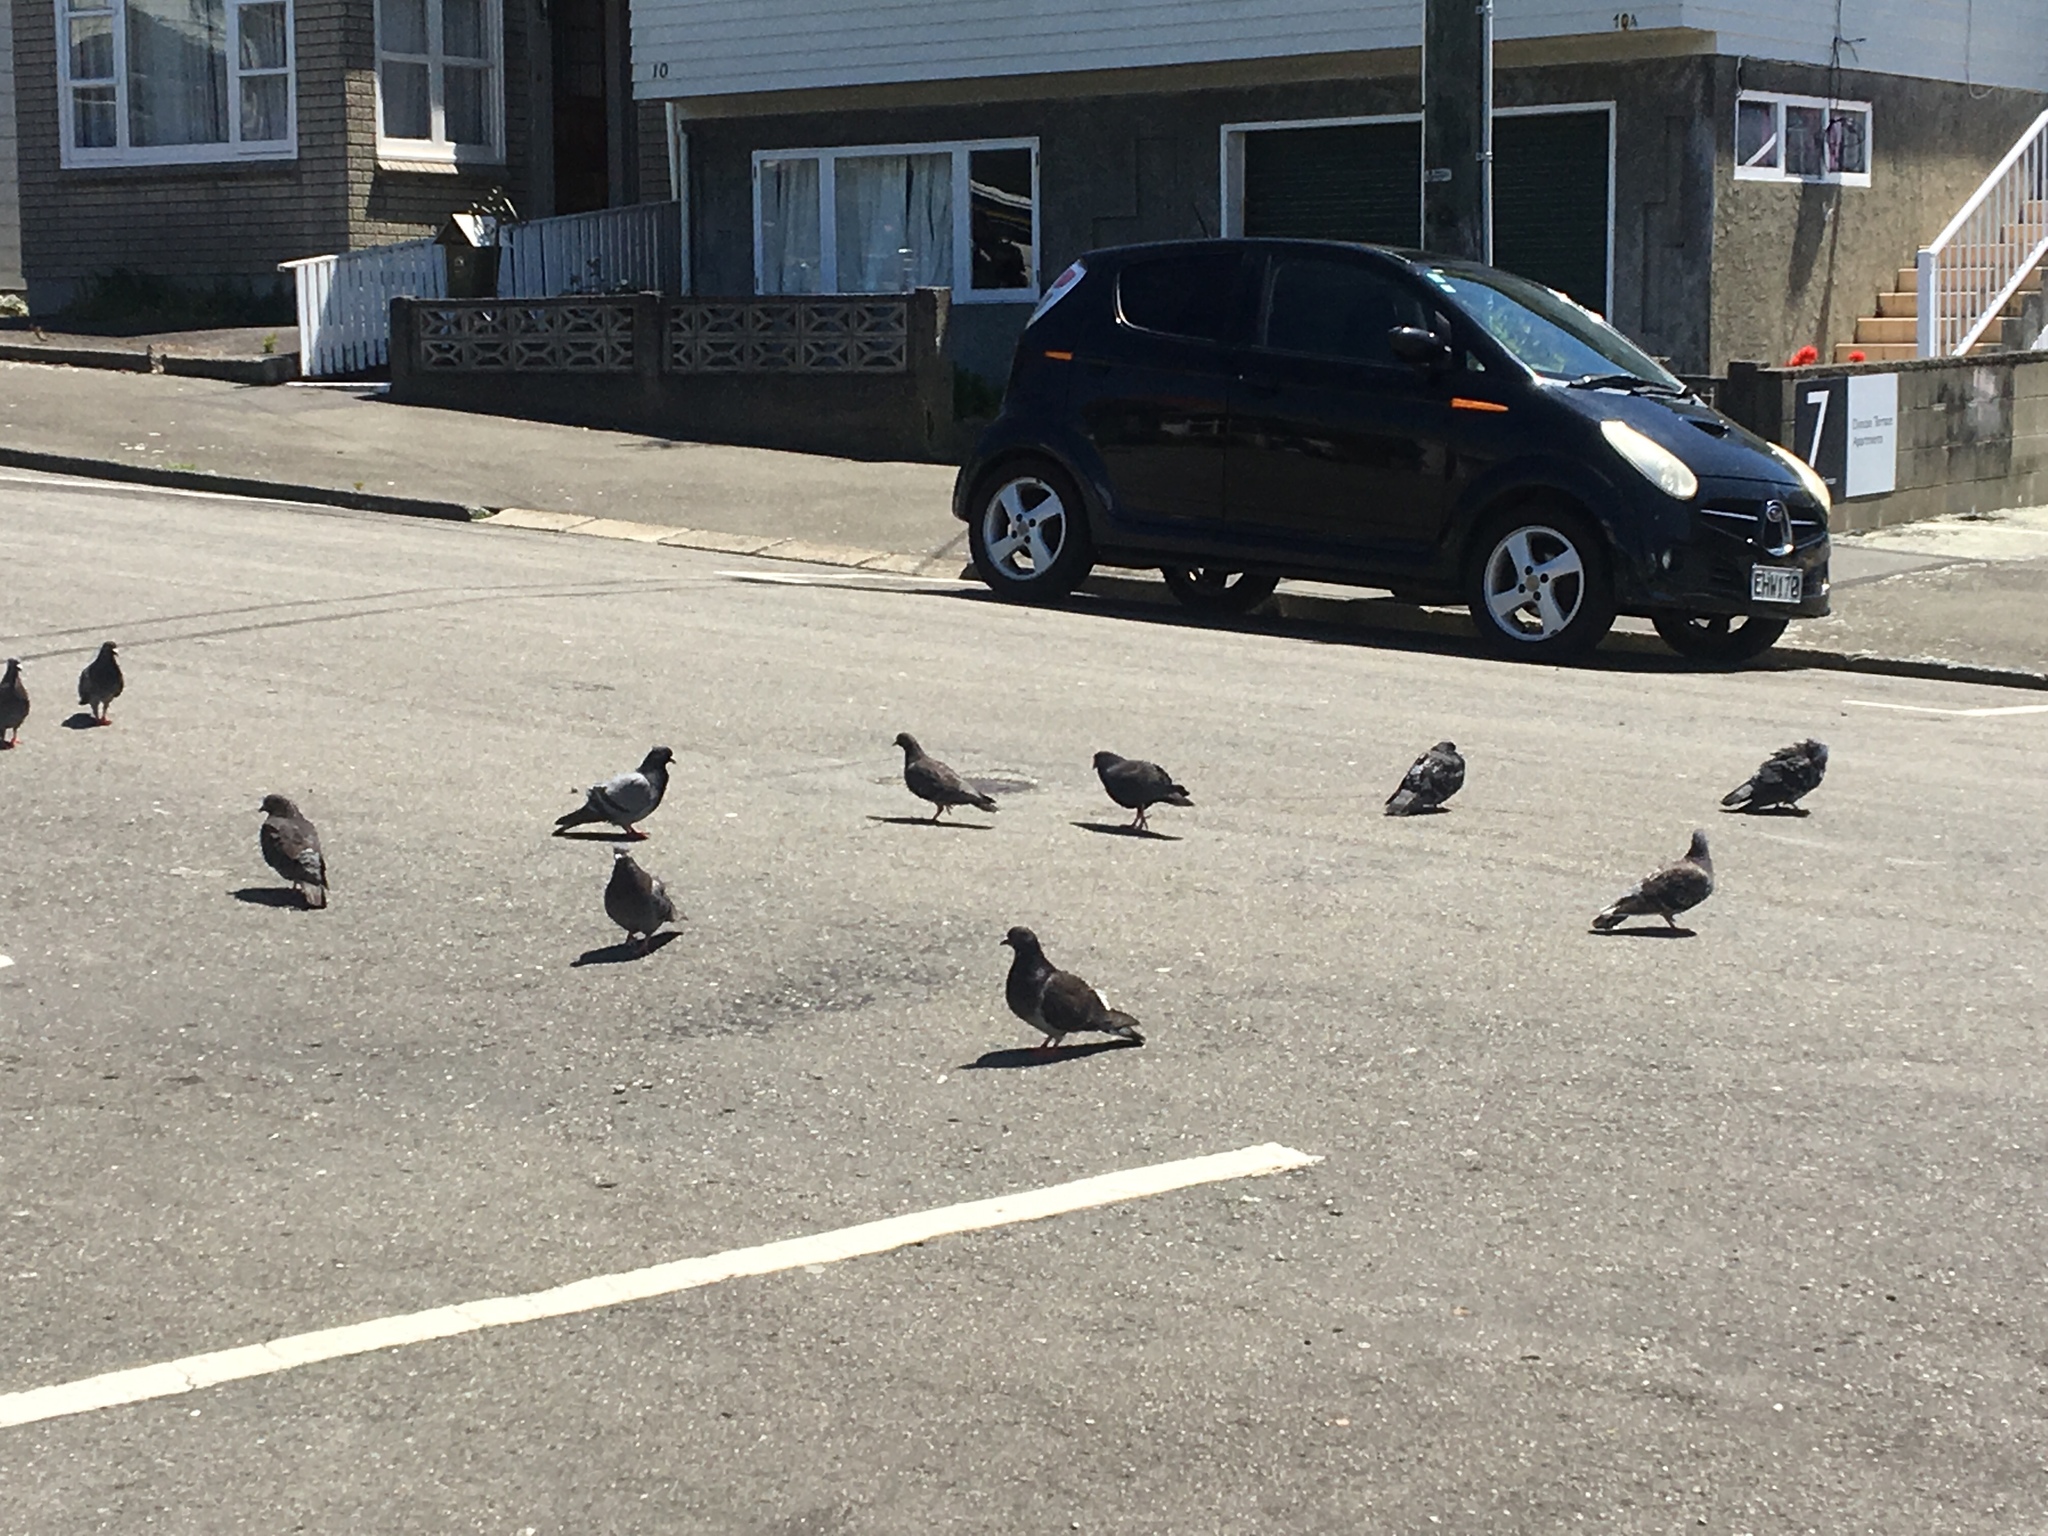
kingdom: Animalia
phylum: Chordata
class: Aves
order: Columbiformes
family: Columbidae
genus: Columba
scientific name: Columba livia
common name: Rock pigeon
